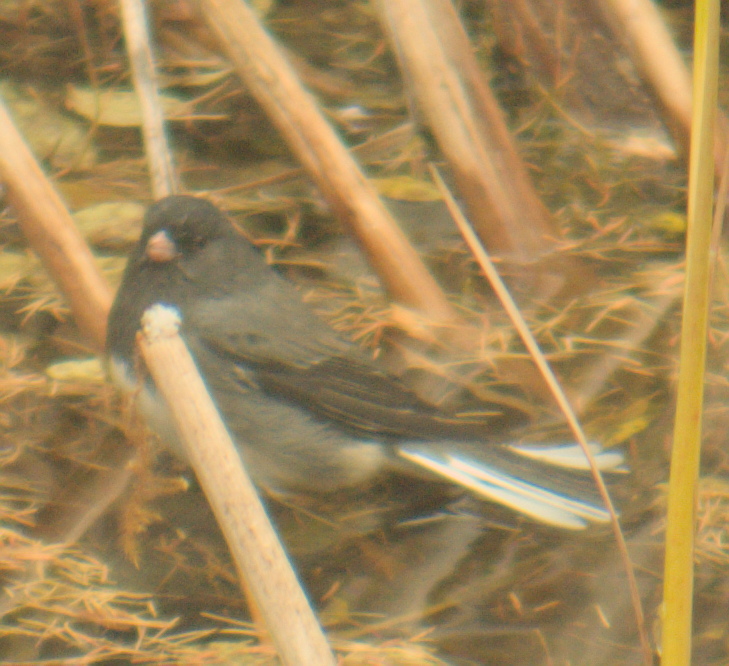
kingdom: Animalia
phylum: Chordata
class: Aves
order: Passeriformes
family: Passerellidae
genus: Junco
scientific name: Junco hyemalis
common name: Dark-eyed junco
